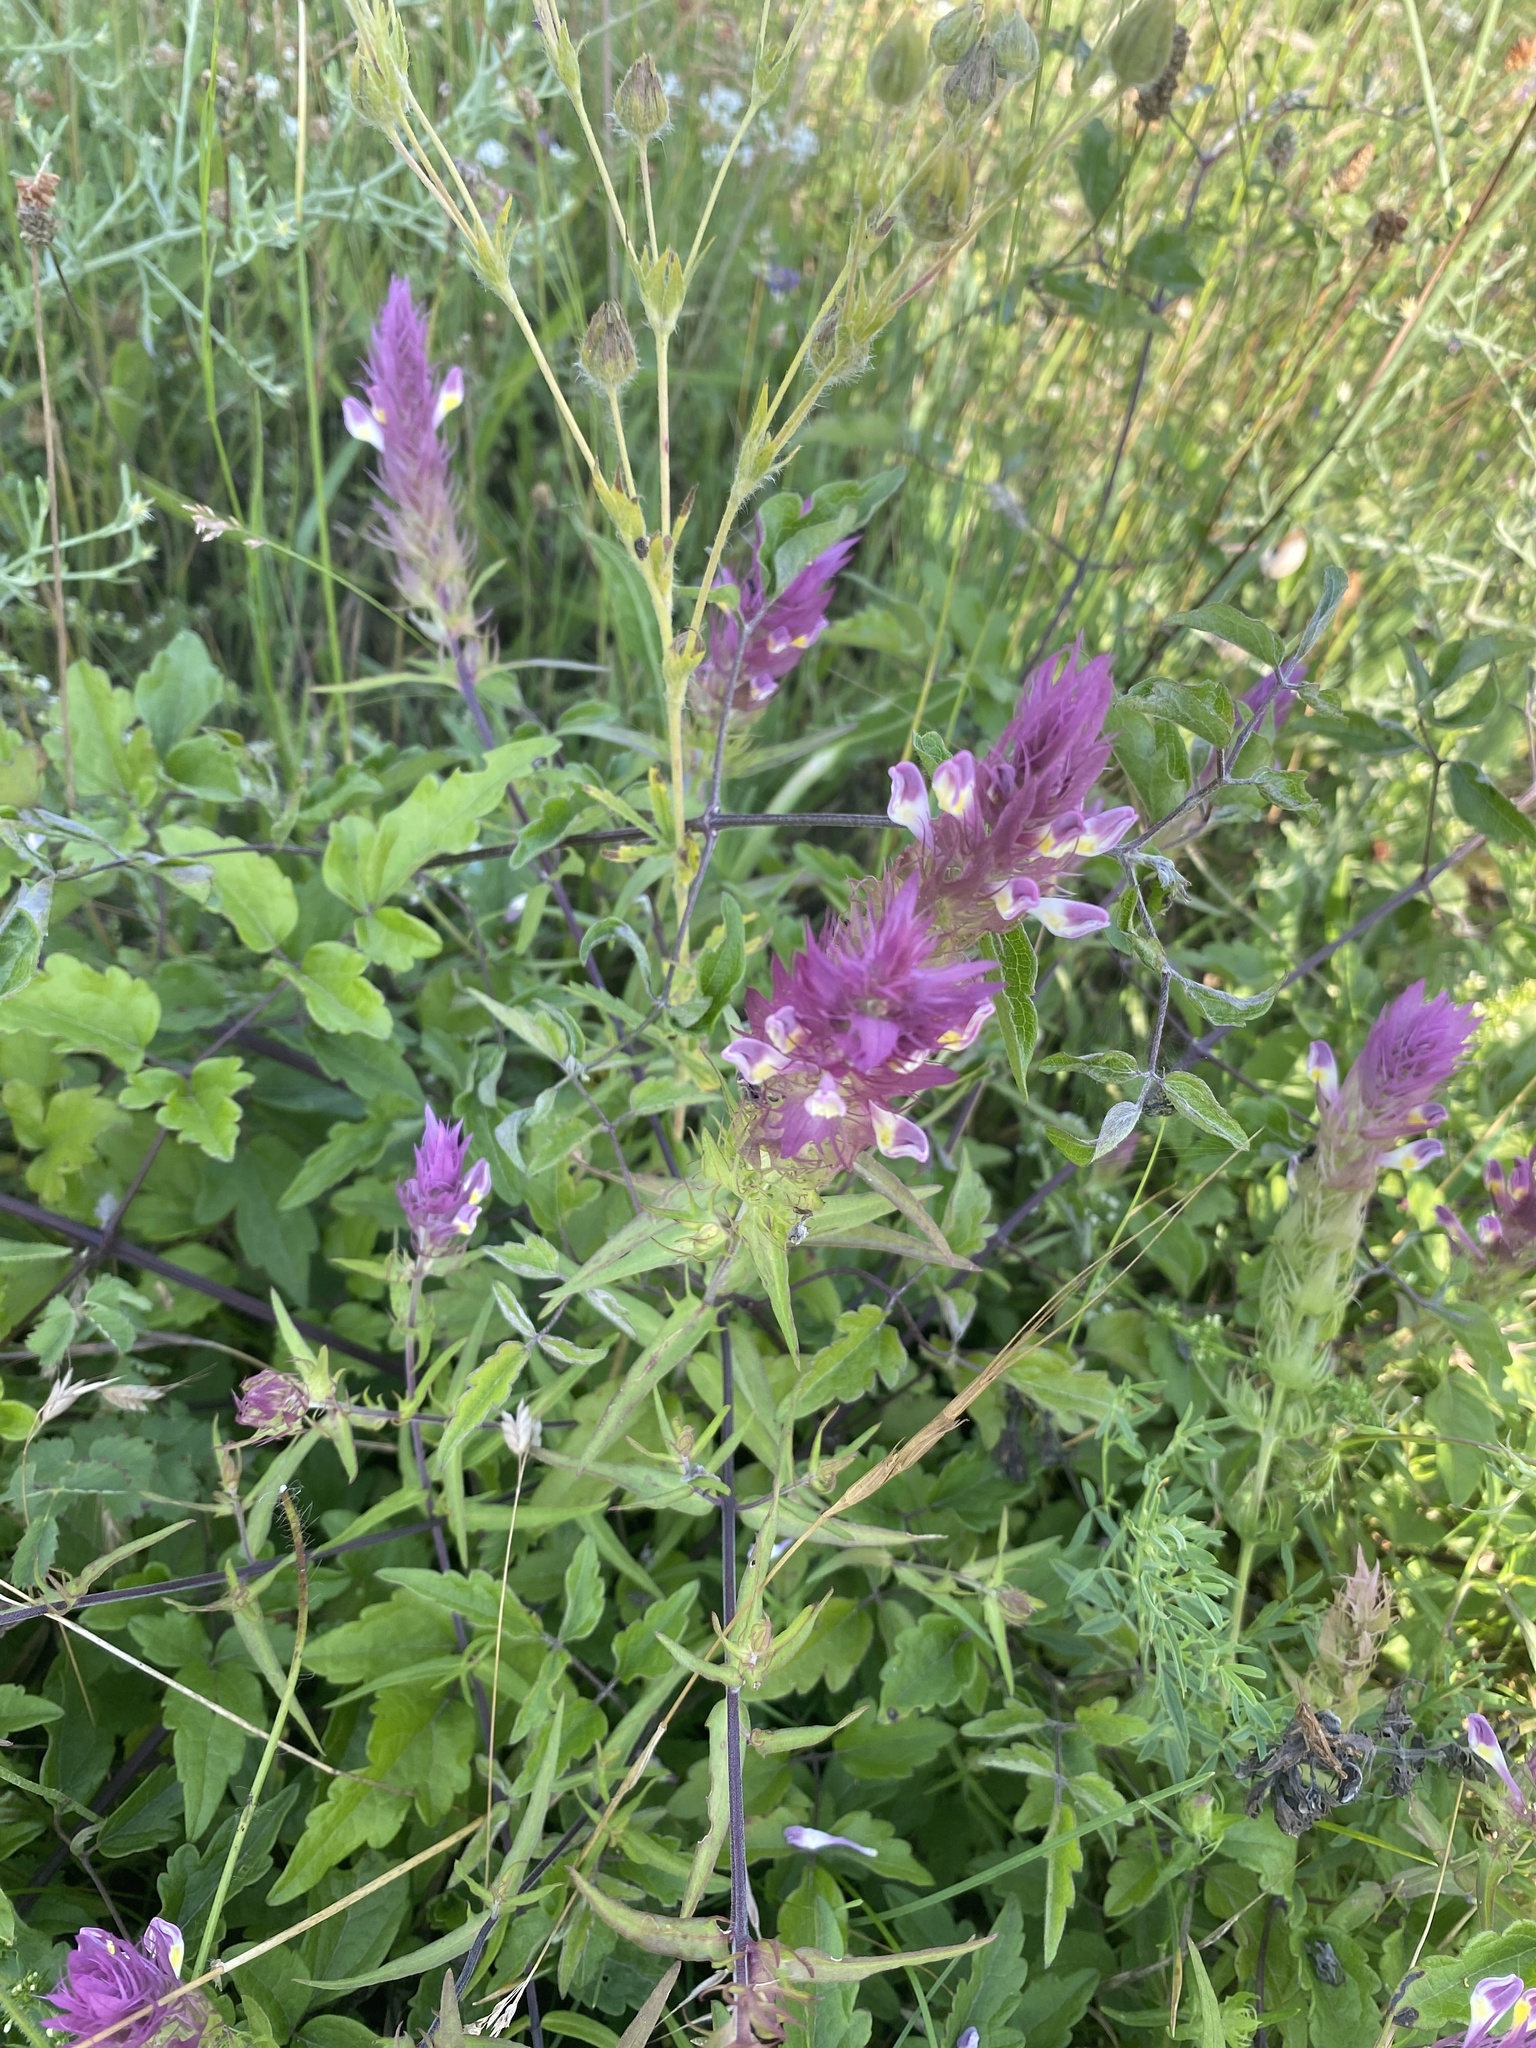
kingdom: Plantae
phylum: Tracheophyta
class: Magnoliopsida
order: Lamiales
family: Orobanchaceae
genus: Melampyrum
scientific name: Melampyrum arvense
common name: Field cow-wheat
